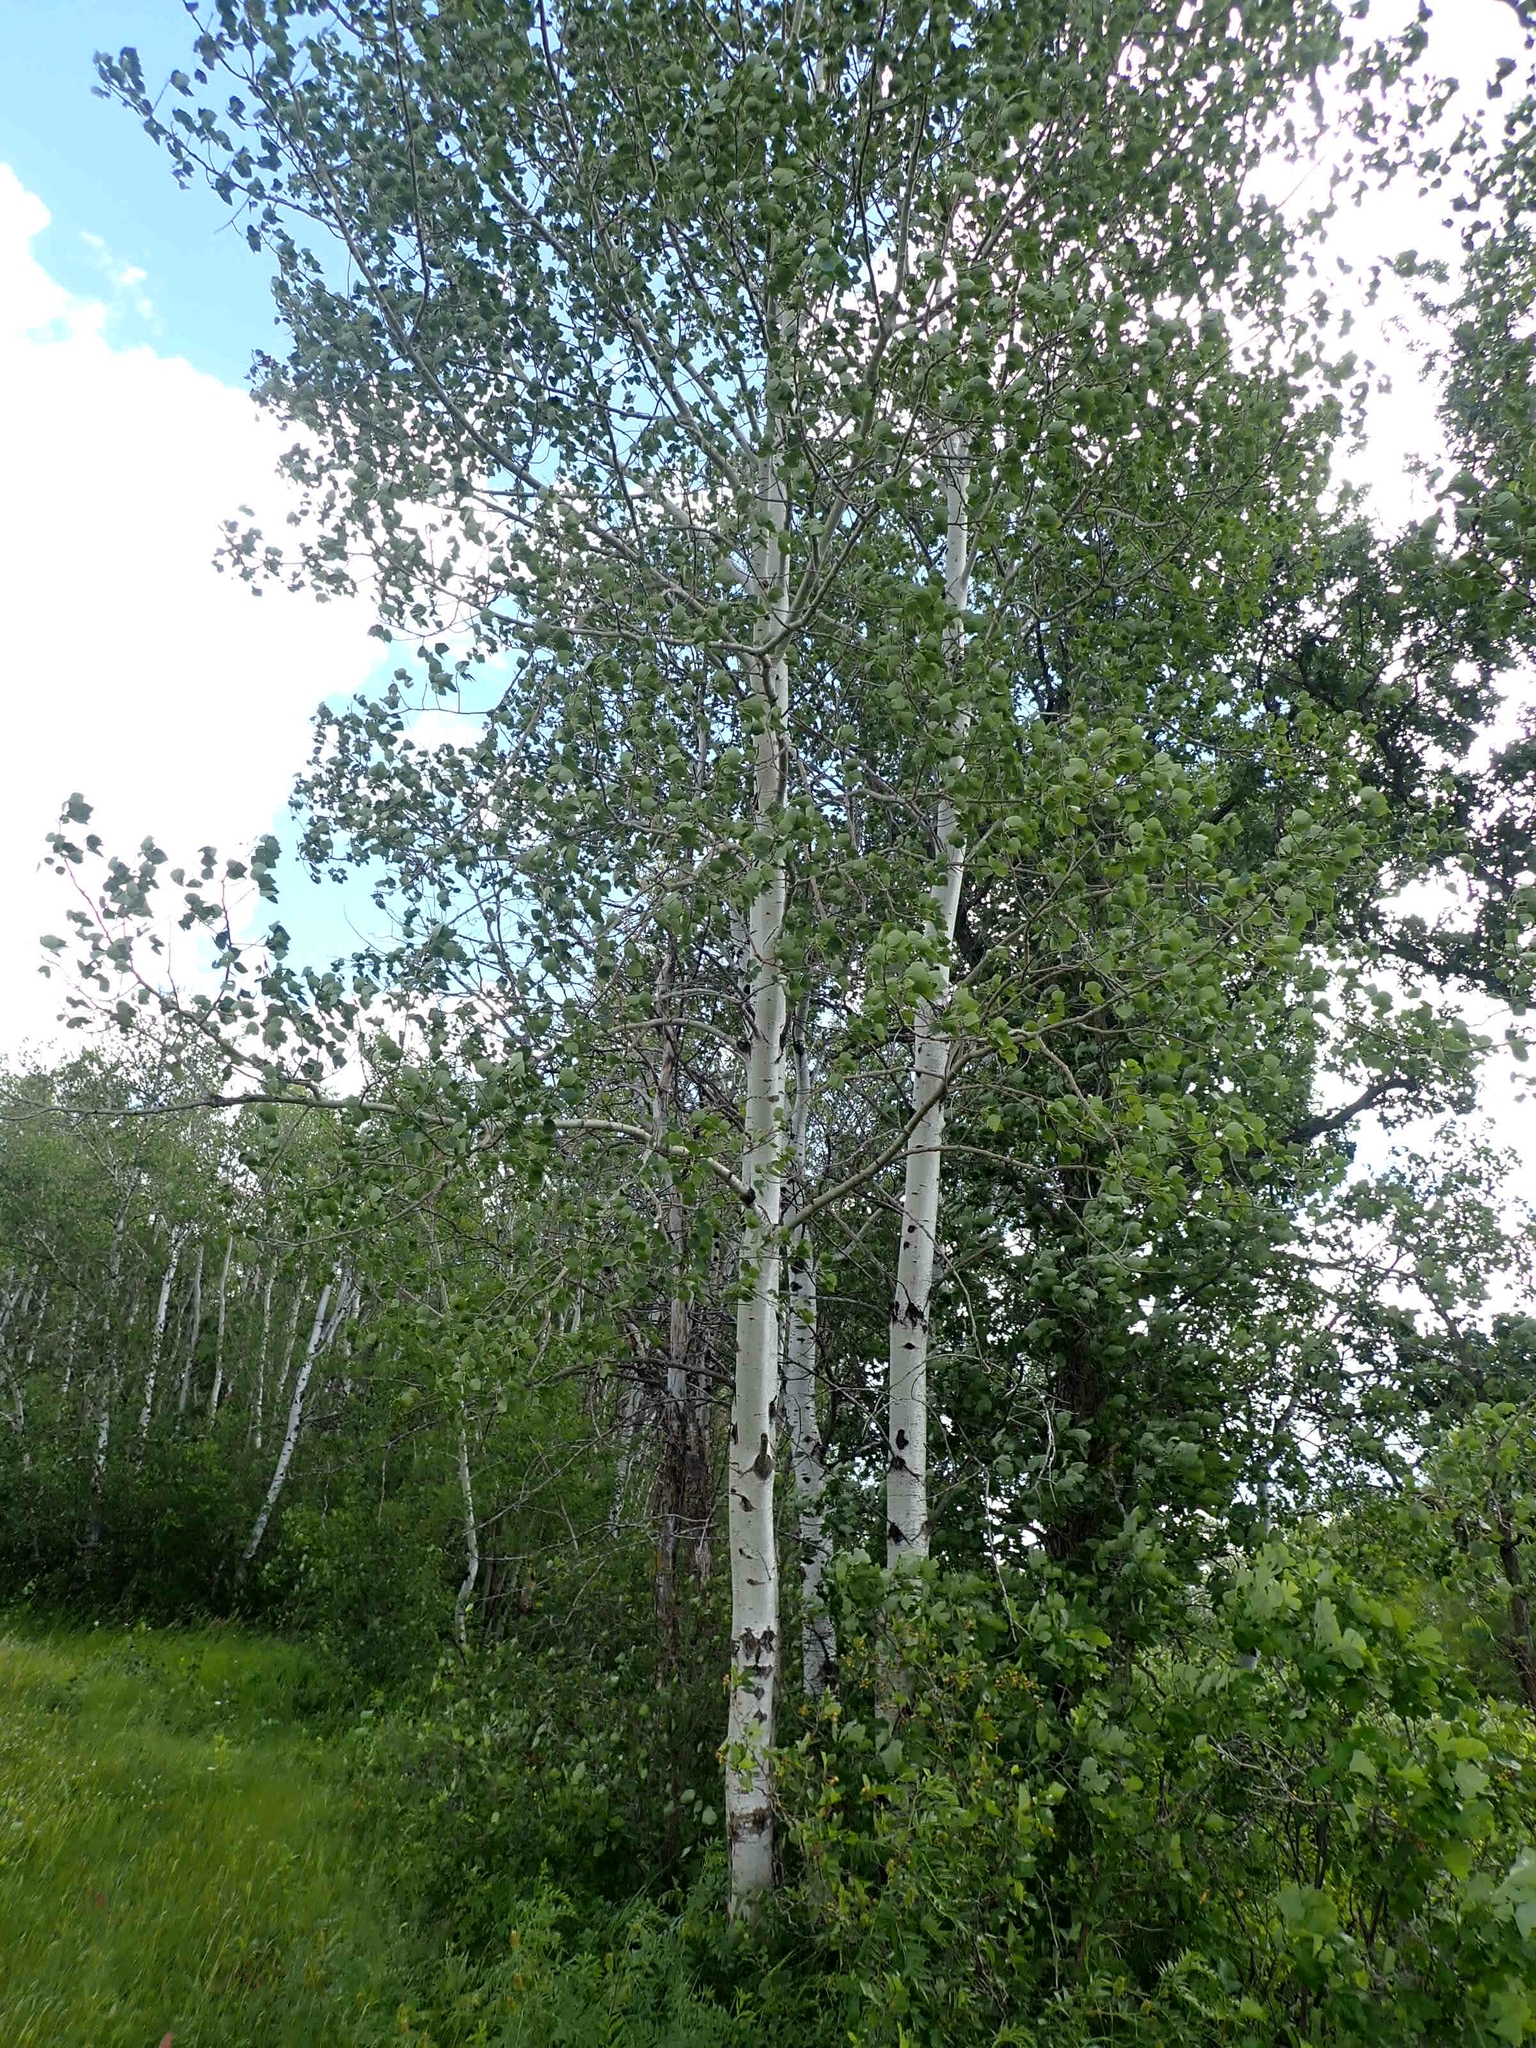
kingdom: Plantae
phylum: Tracheophyta
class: Magnoliopsida
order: Malpighiales
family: Salicaceae
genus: Populus
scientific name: Populus tremuloides
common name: Quaking aspen
